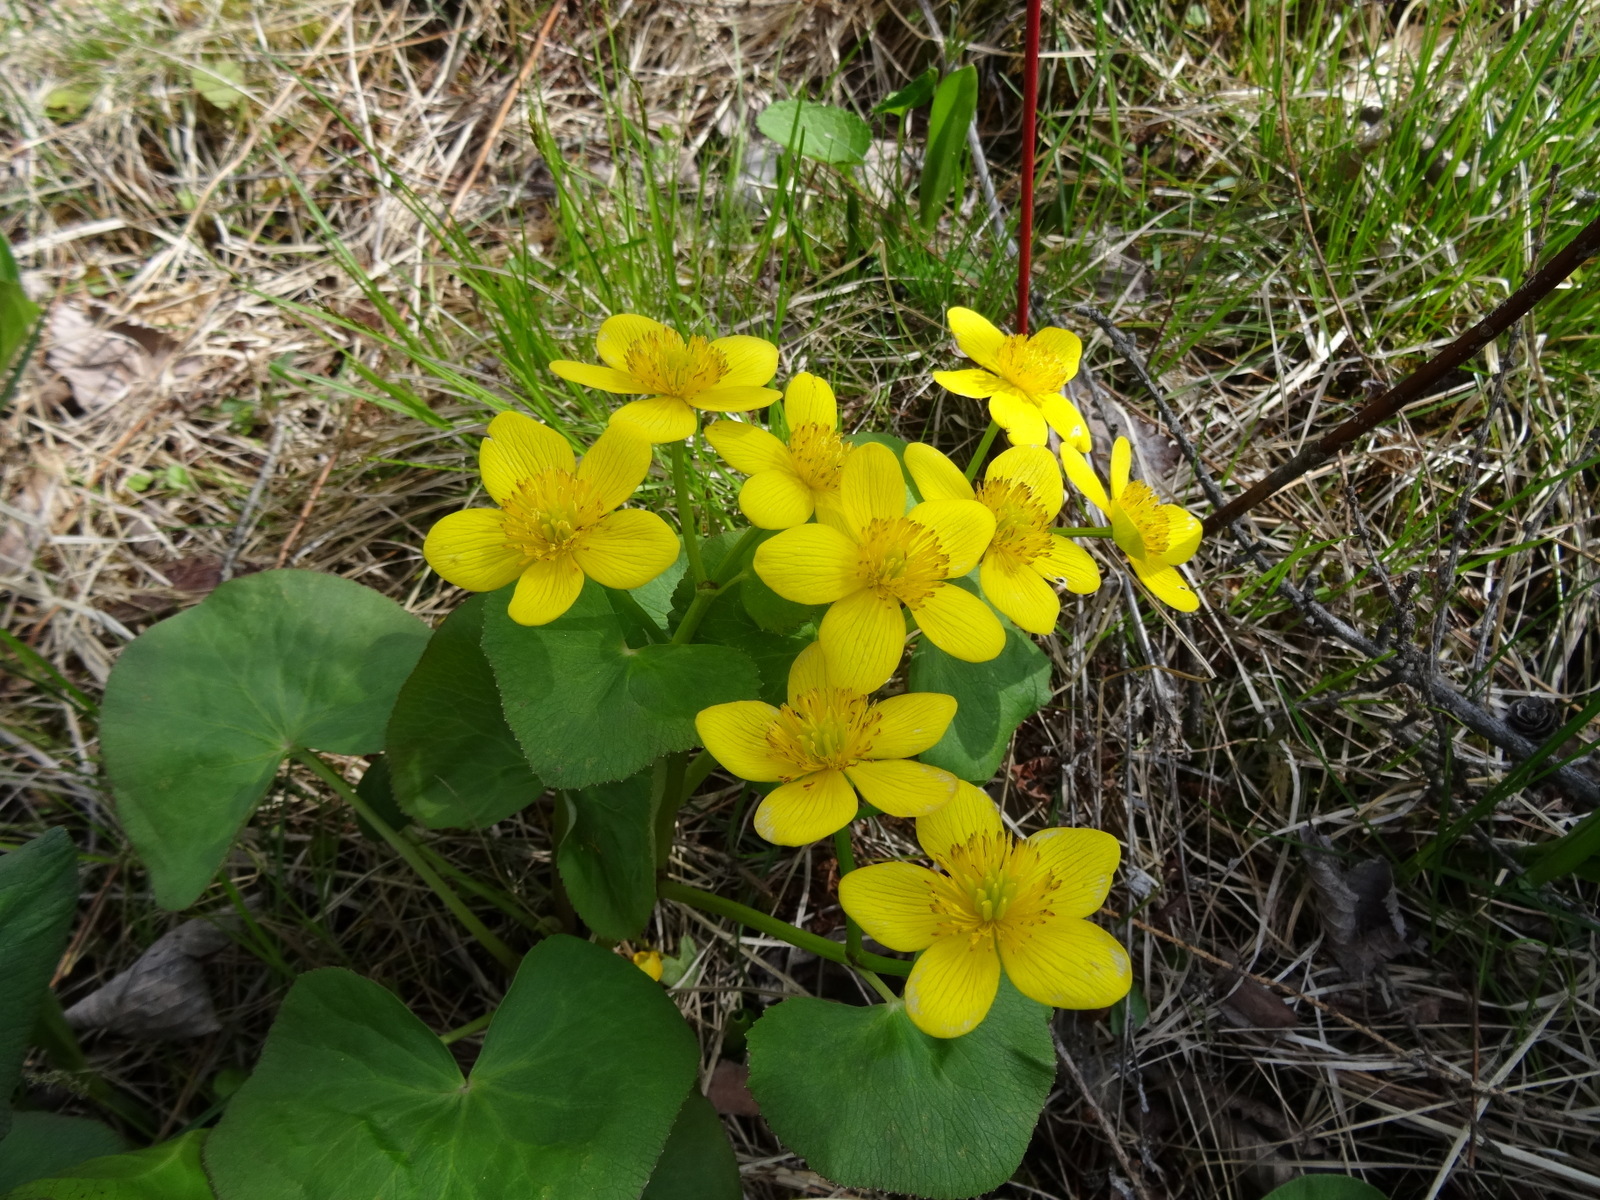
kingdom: Plantae
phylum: Tracheophyta
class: Magnoliopsida
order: Ranunculales
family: Ranunculaceae
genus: Caltha
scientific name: Caltha palustris
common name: Marsh marigold
